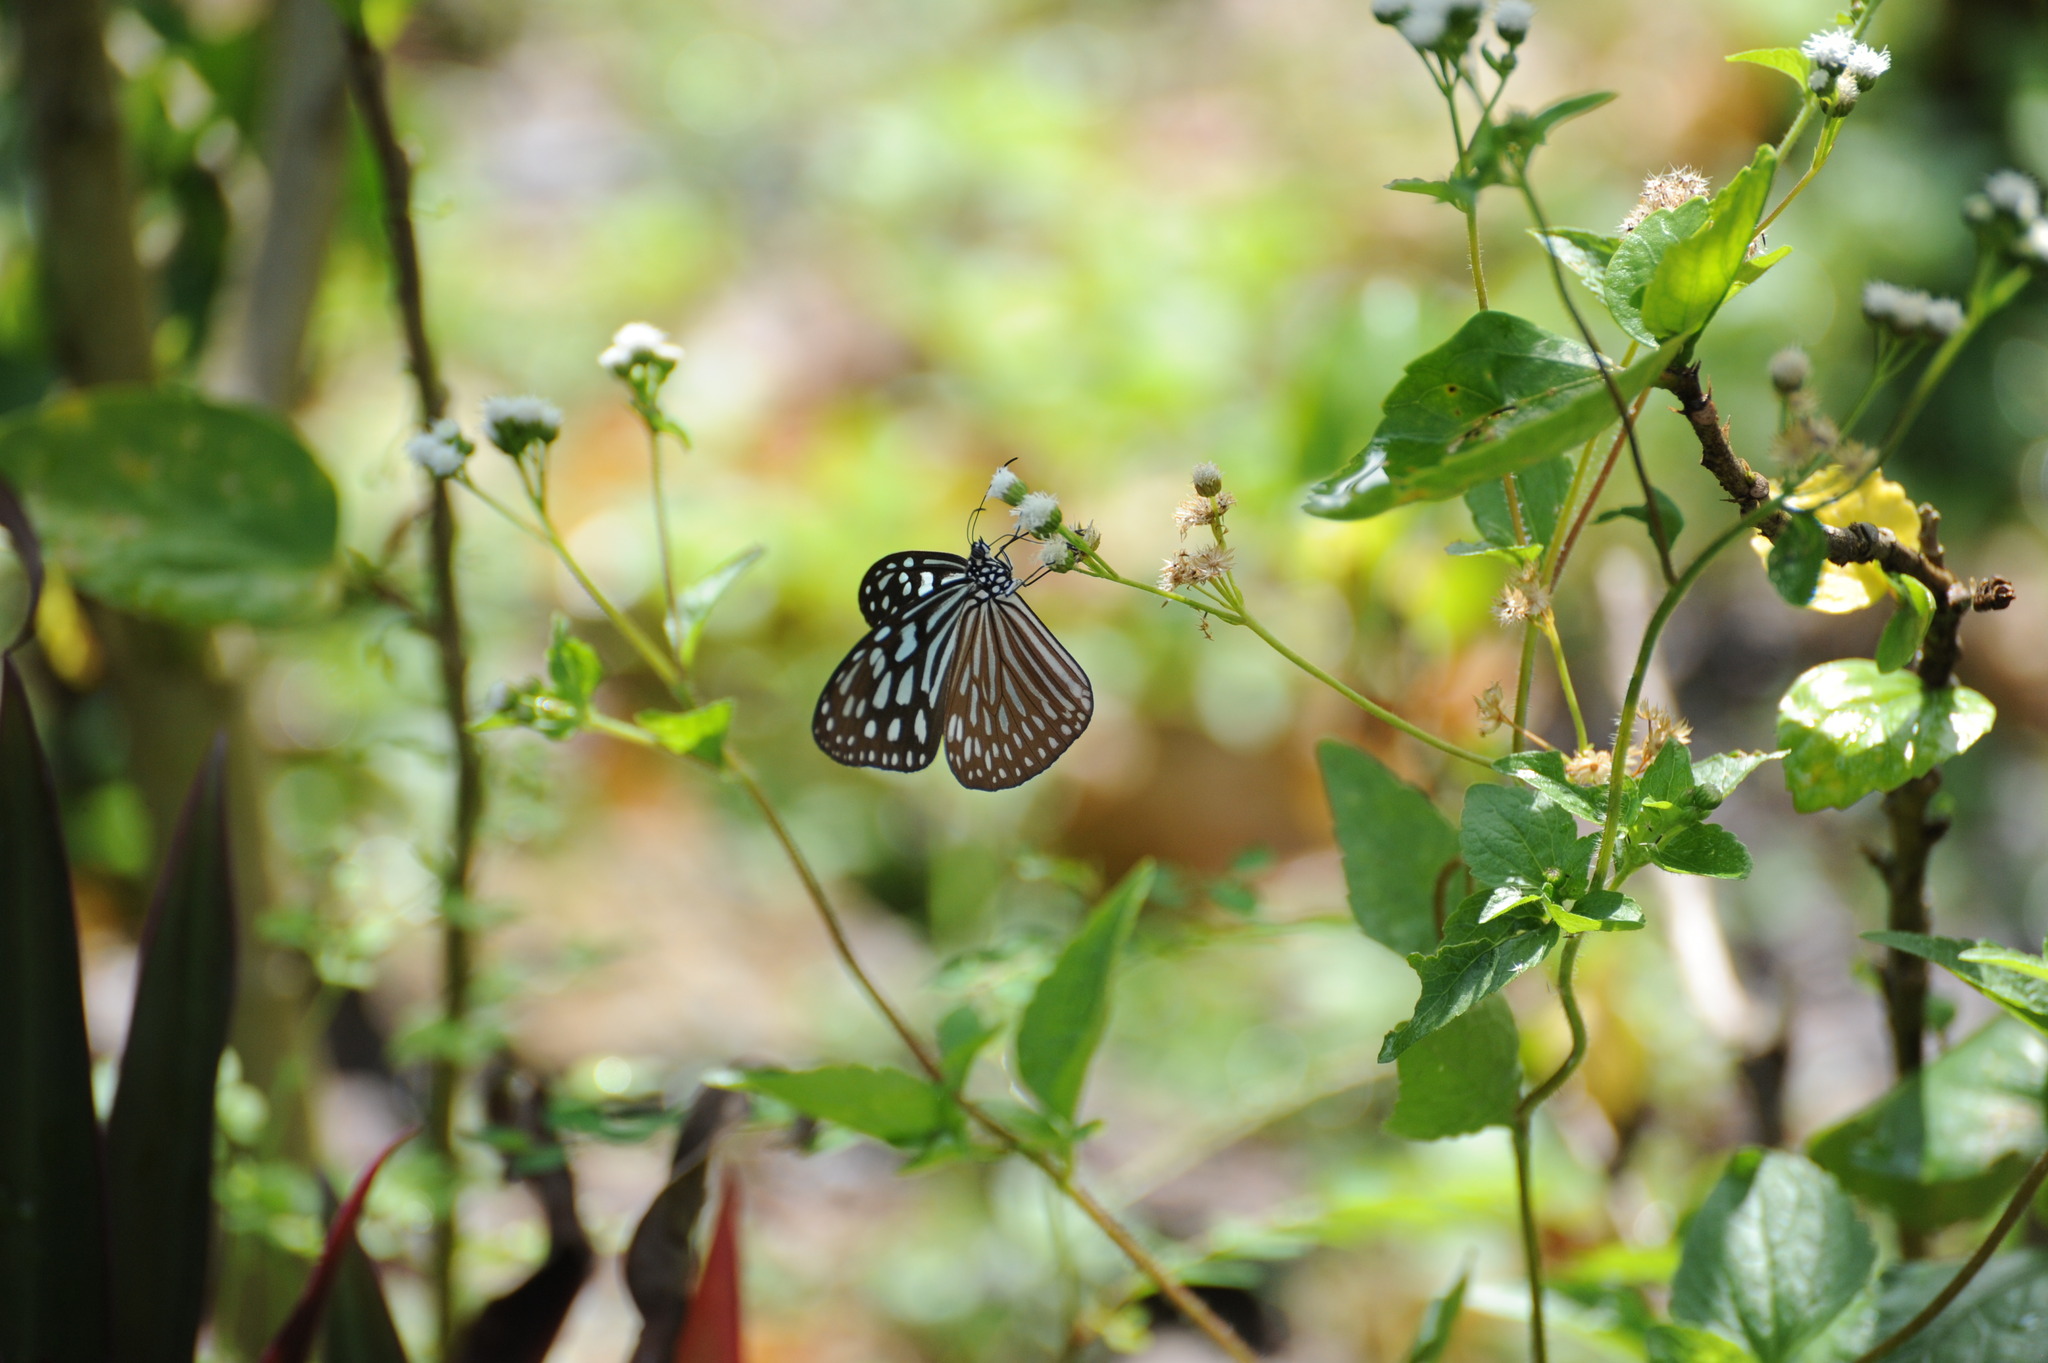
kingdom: Animalia
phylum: Arthropoda
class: Insecta
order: Lepidoptera
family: Nymphalidae
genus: Ideopsis
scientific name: Ideopsis similis
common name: Ceylon blue glassy tiger
